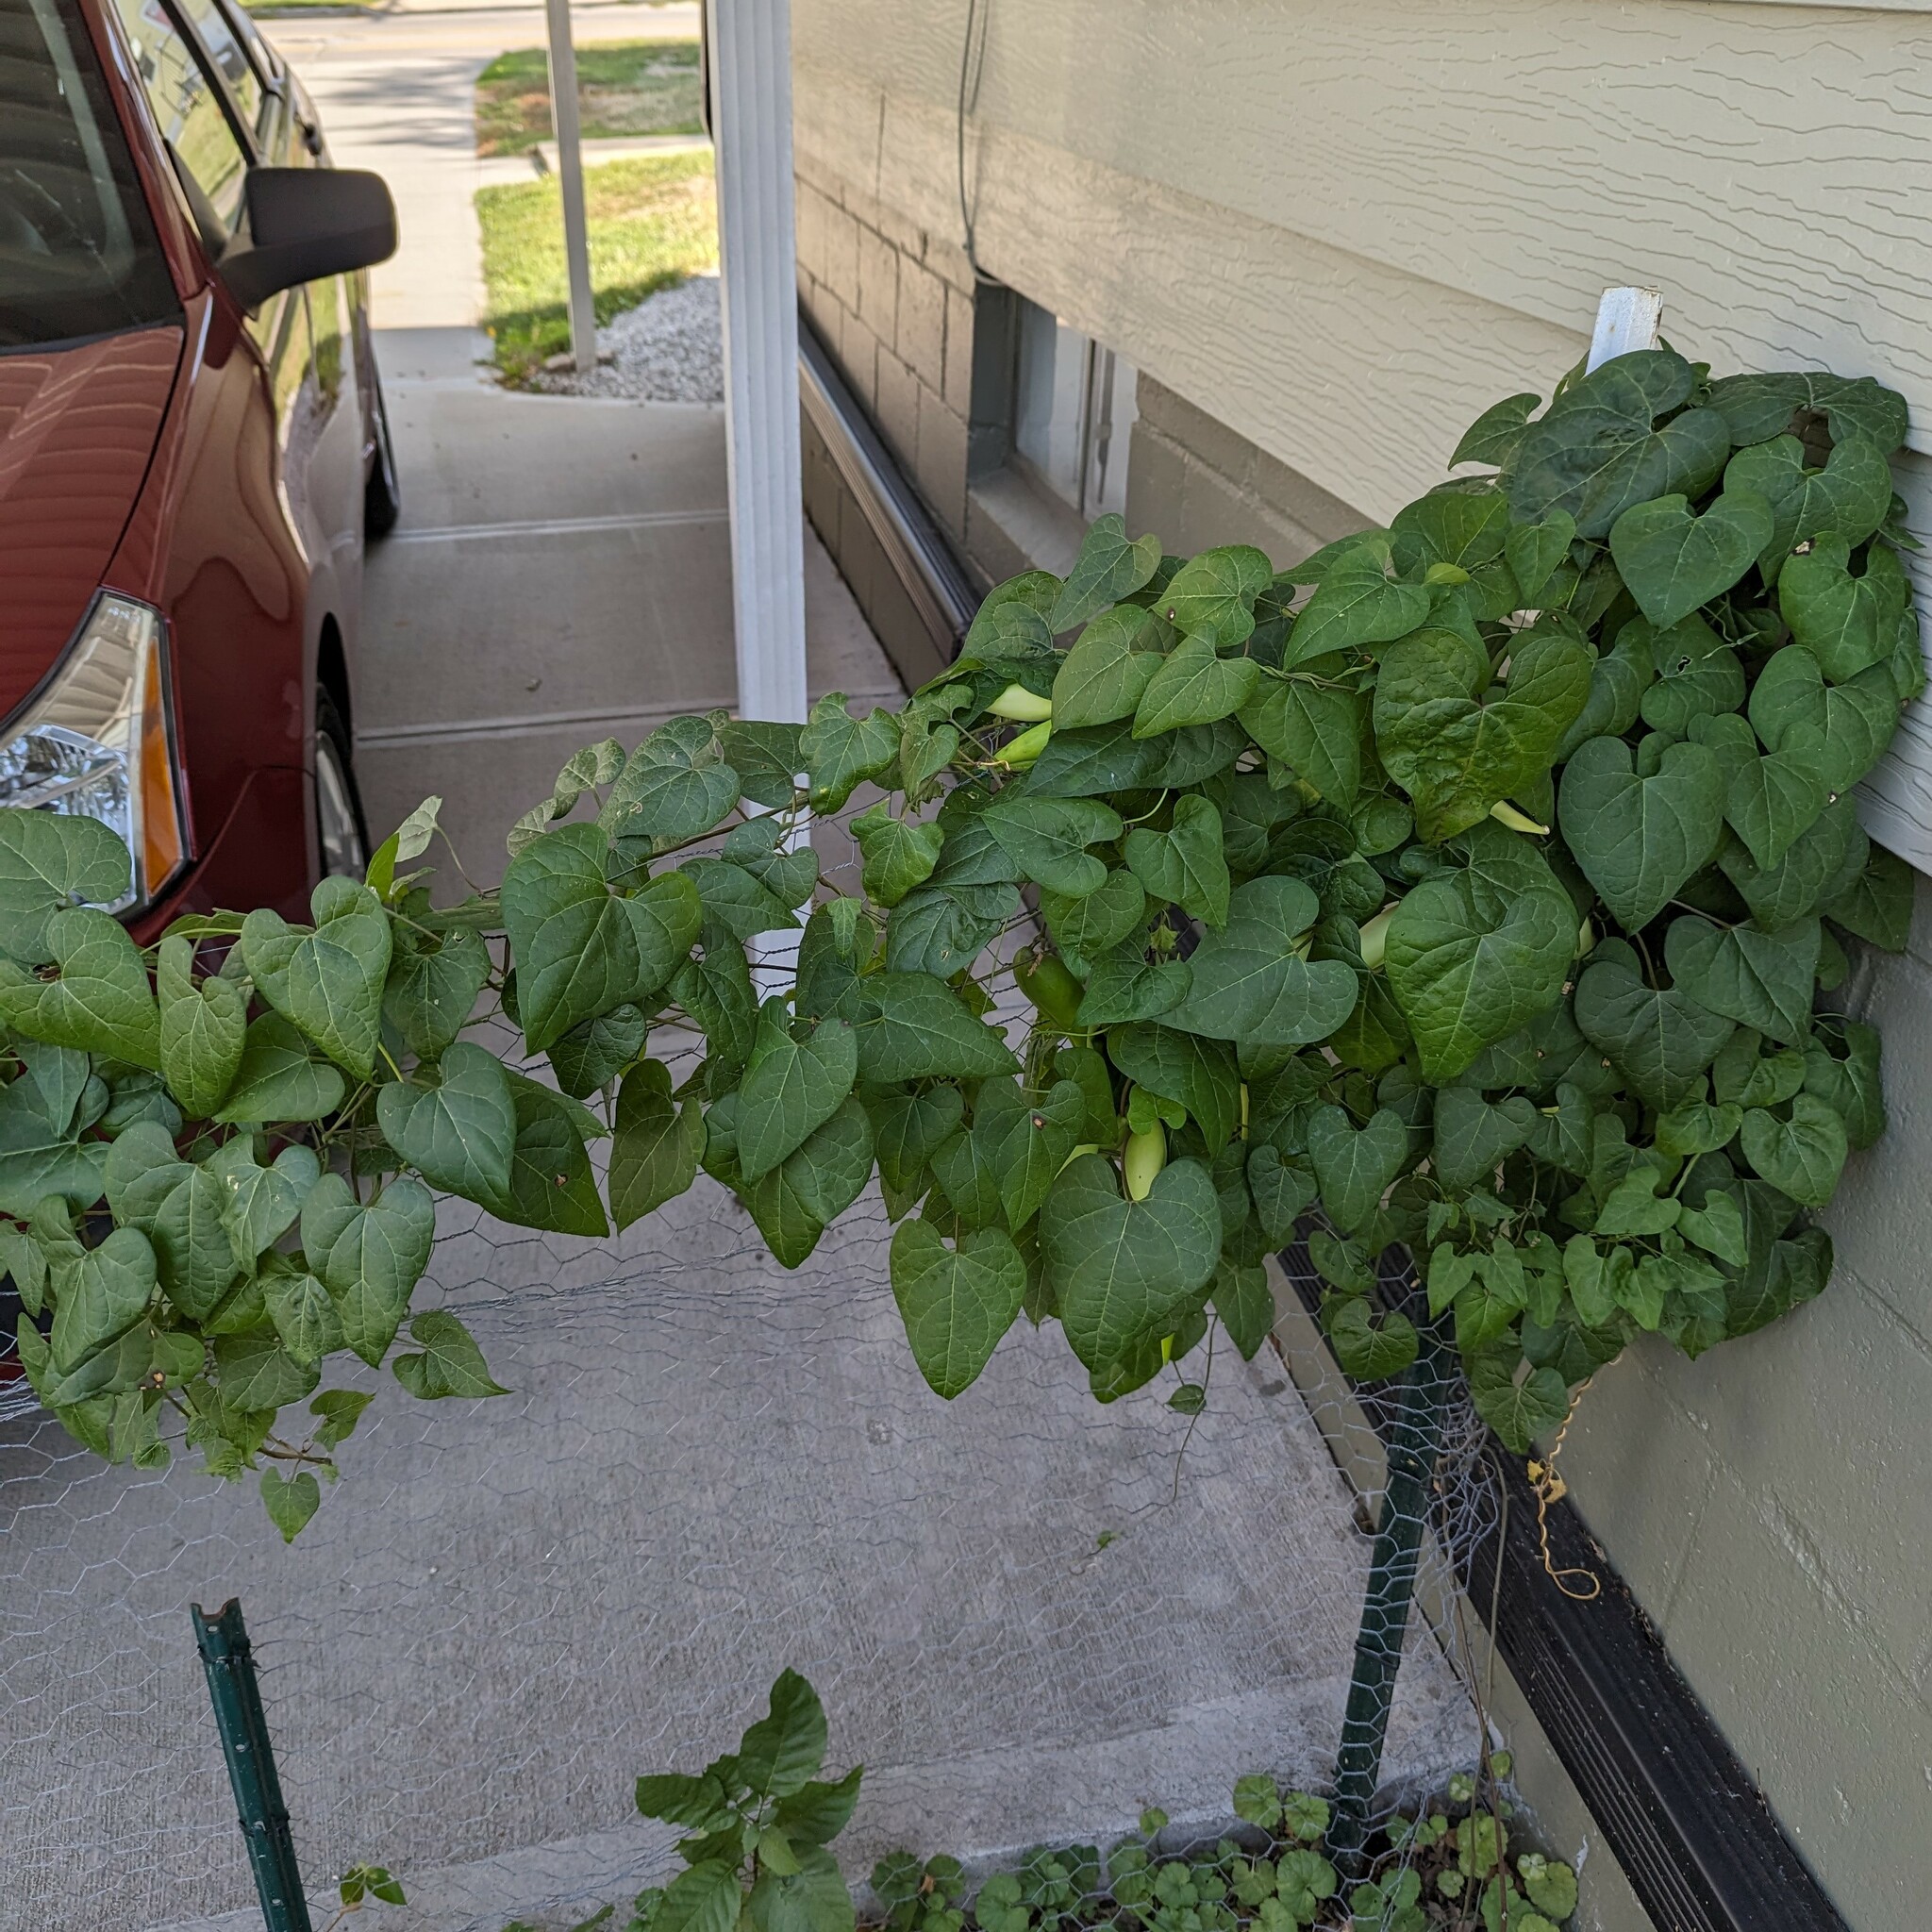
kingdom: Plantae
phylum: Tracheophyta
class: Magnoliopsida
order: Gentianales
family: Apocynaceae
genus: Cynanchum
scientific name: Cynanchum laeve
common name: Sandvine
